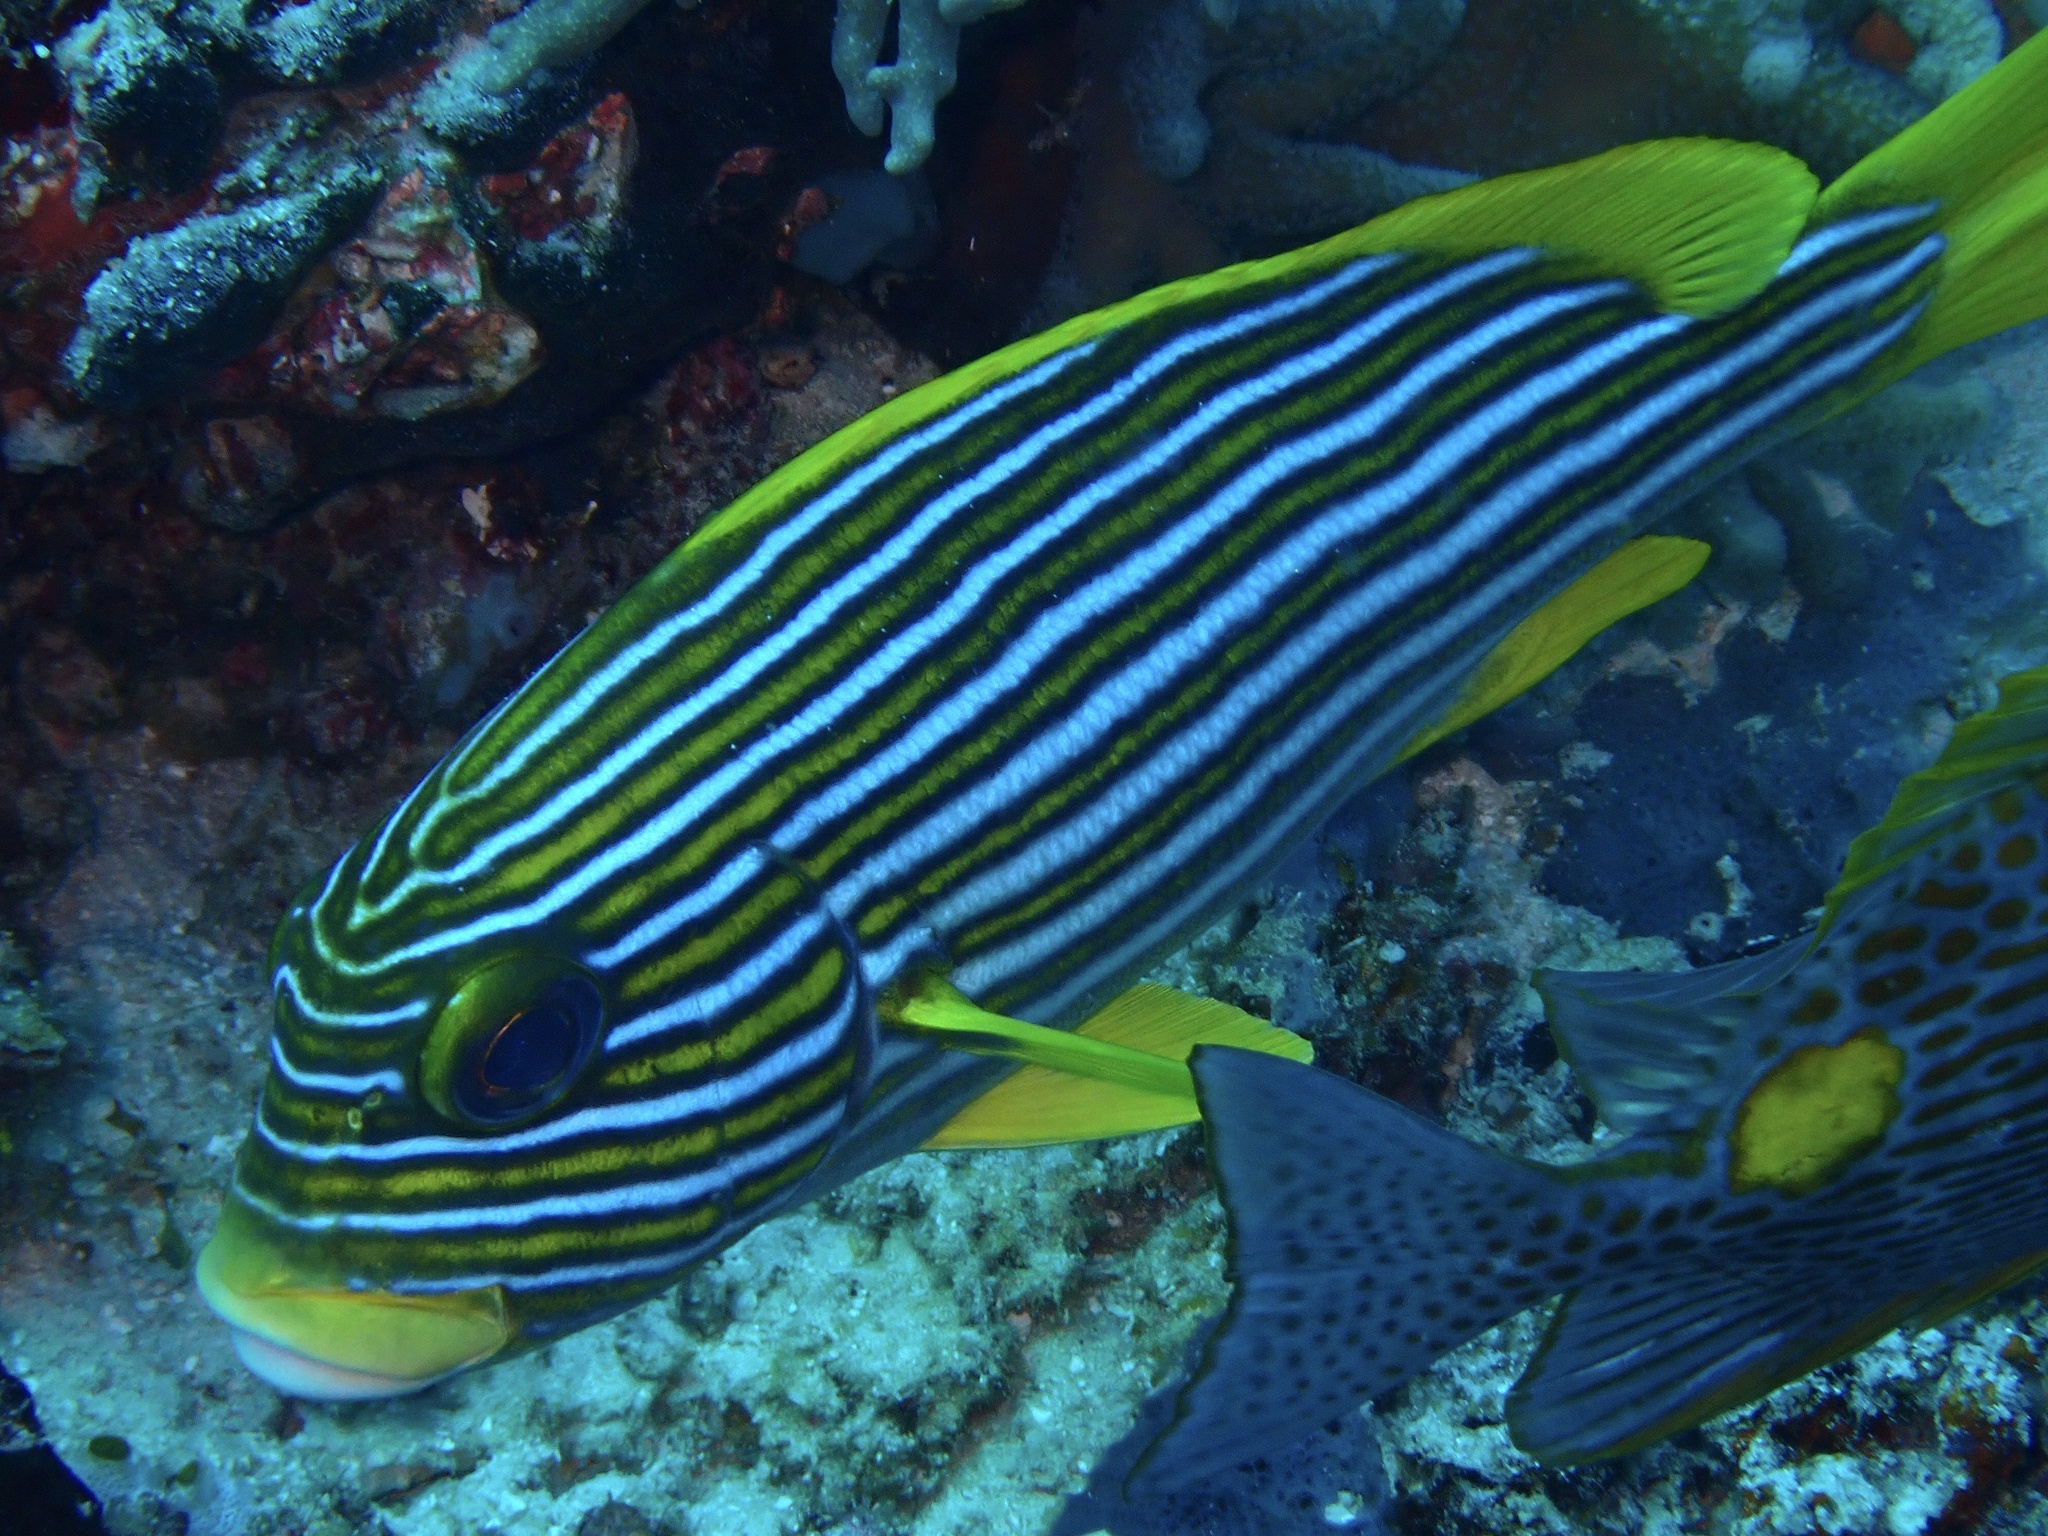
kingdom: Animalia
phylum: Chordata
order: Perciformes
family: Haemulidae
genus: Plectorhinchus
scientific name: Plectorhinchus polytaenia
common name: Ribboned sweetlips
